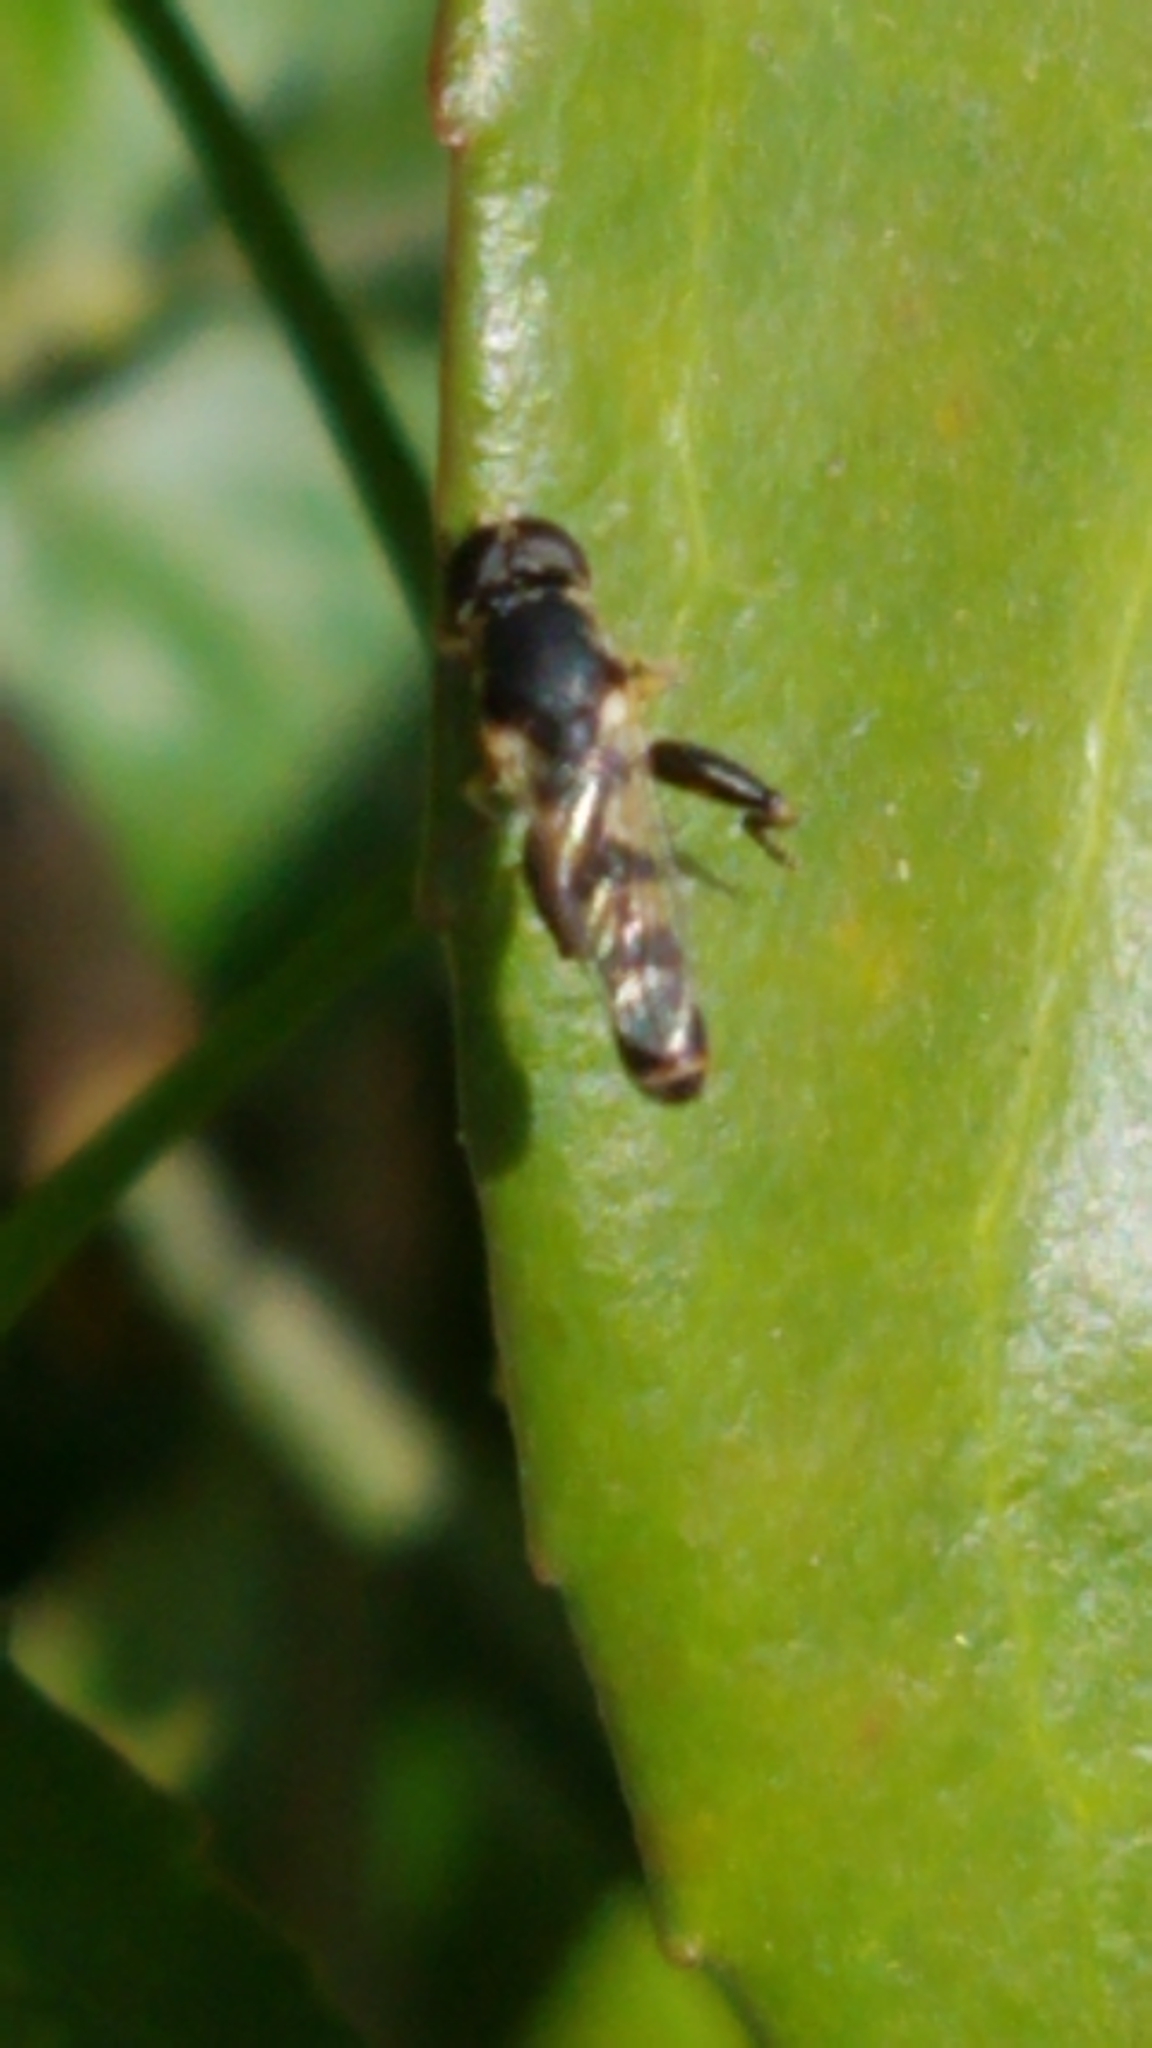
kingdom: Animalia
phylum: Arthropoda
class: Insecta
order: Diptera
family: Syrphidae
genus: Syritta
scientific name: Syritta pipiens
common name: Hover fly
